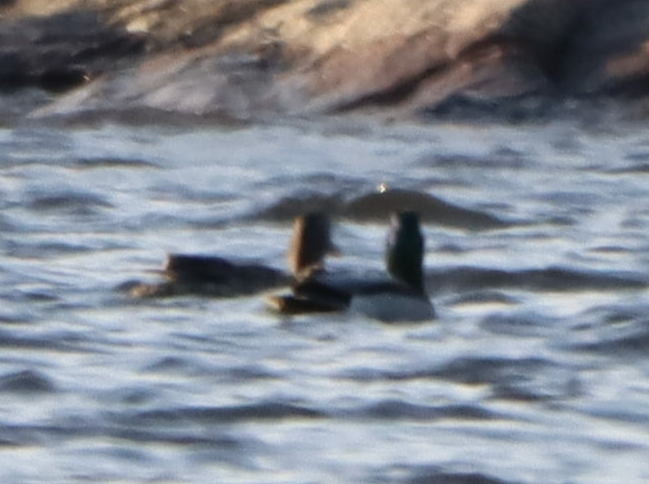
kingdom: Animalia
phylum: Chordata
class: Aves
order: Anseriformes
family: Anatidae
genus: Anas
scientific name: Anas platyrhynchos
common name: Mallard
